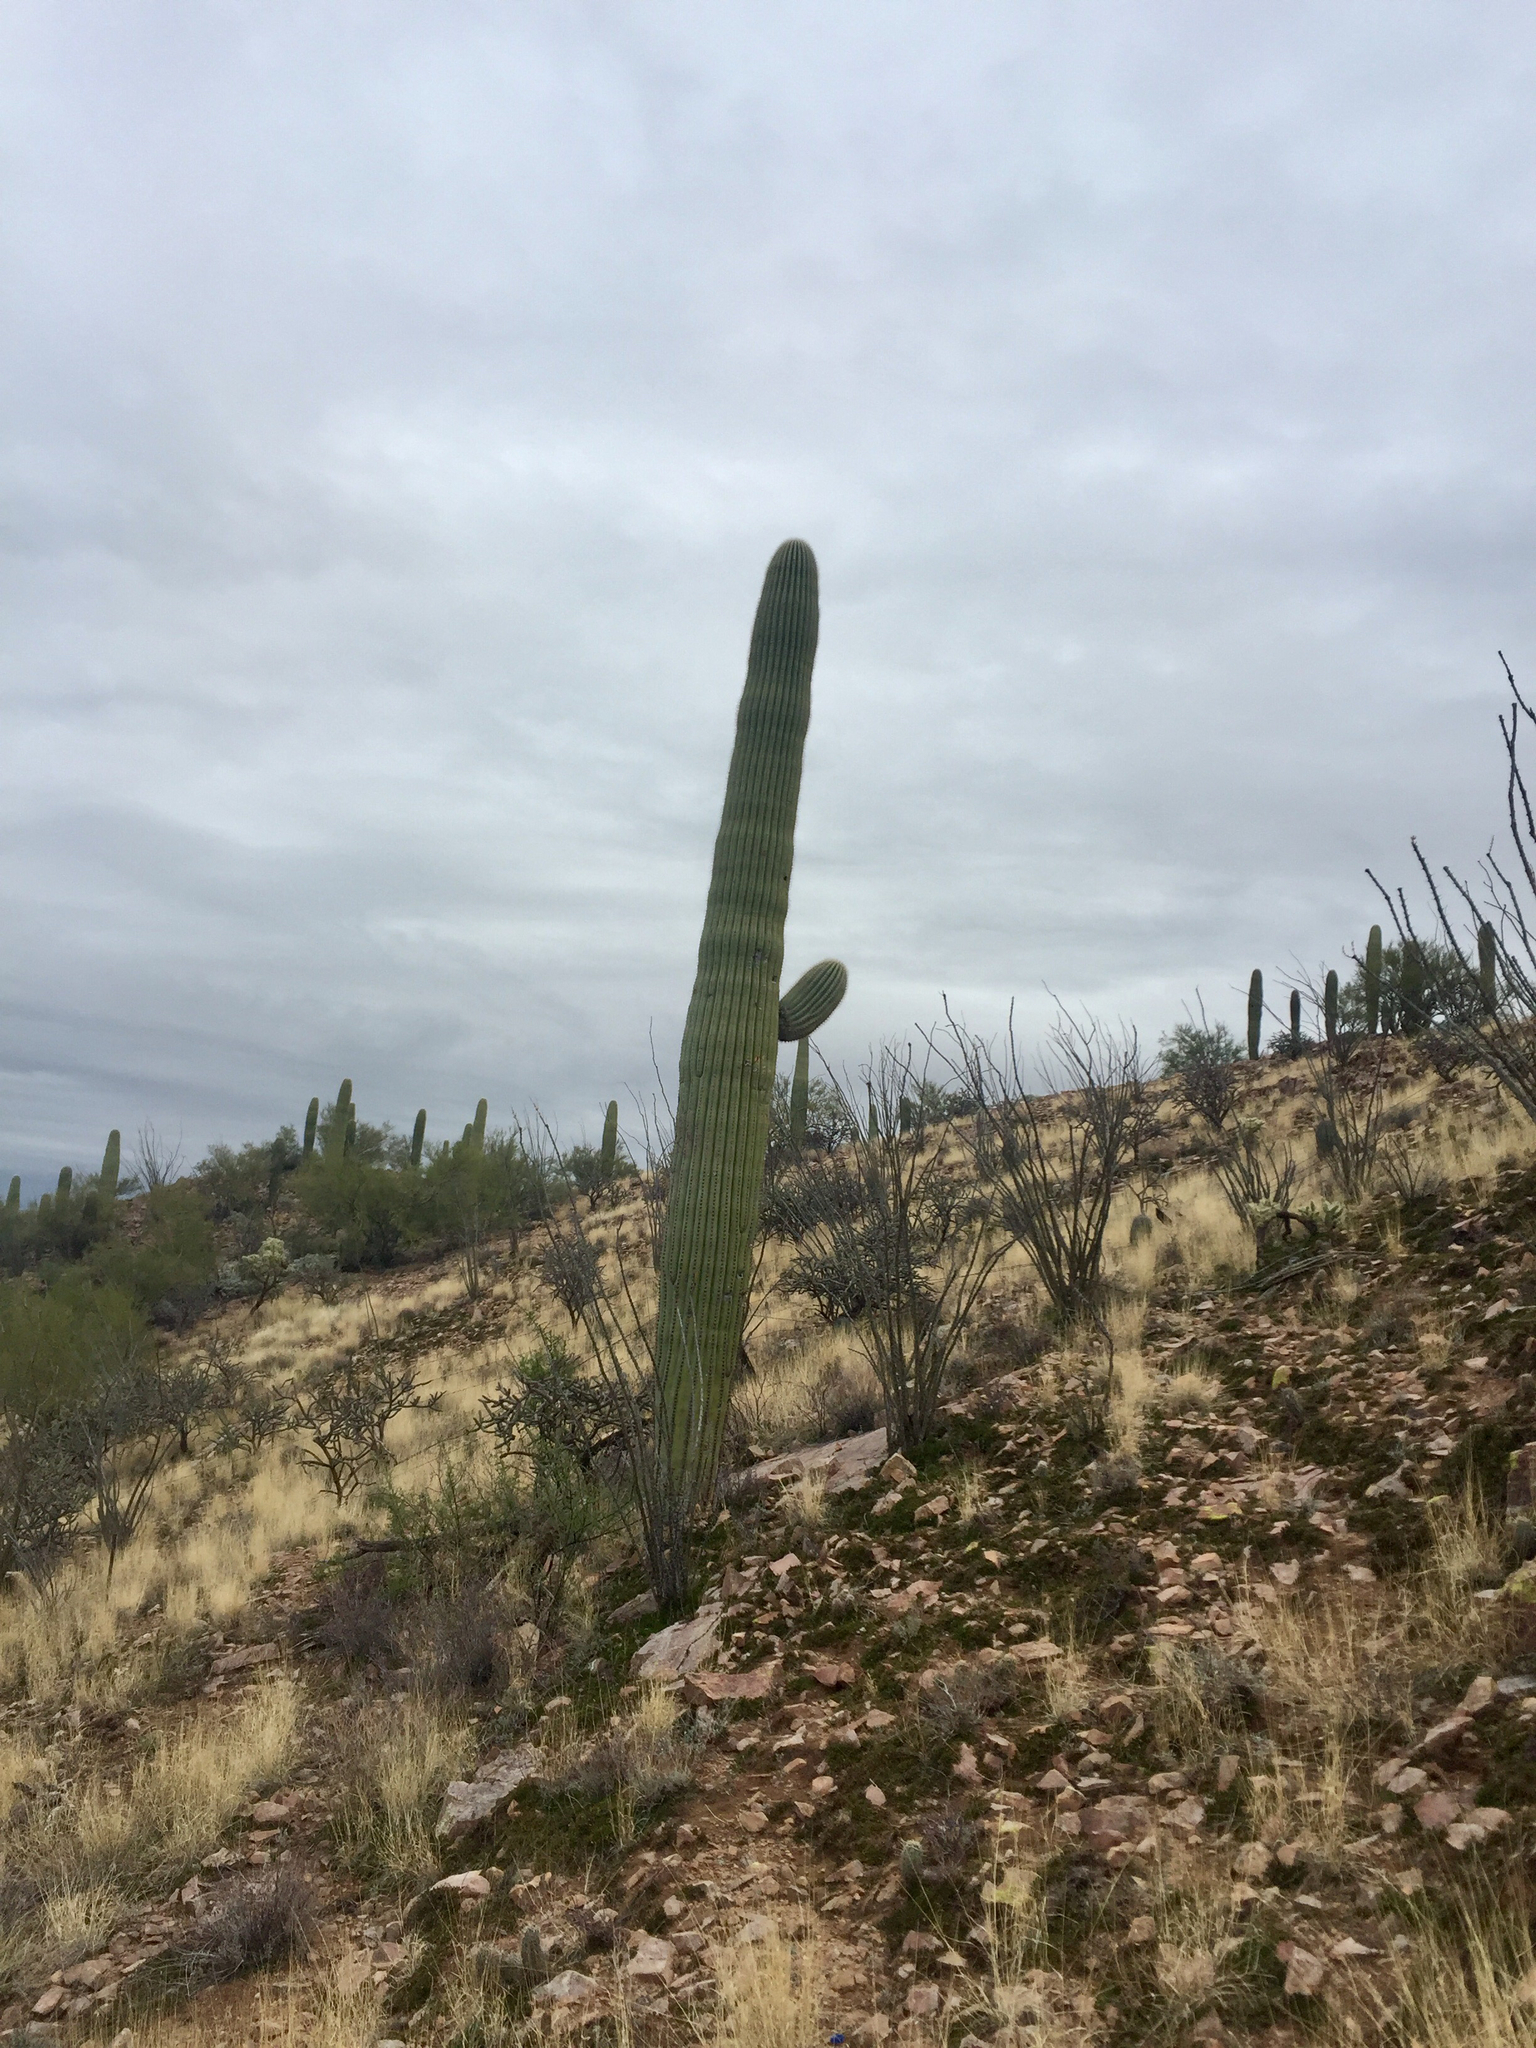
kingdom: Plantae
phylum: Tracheophyta
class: Magnoliopsida
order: Caryophyllales
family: Cactaceae
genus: Carnegiea
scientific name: Carnegiea gigantea
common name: Saguaro
